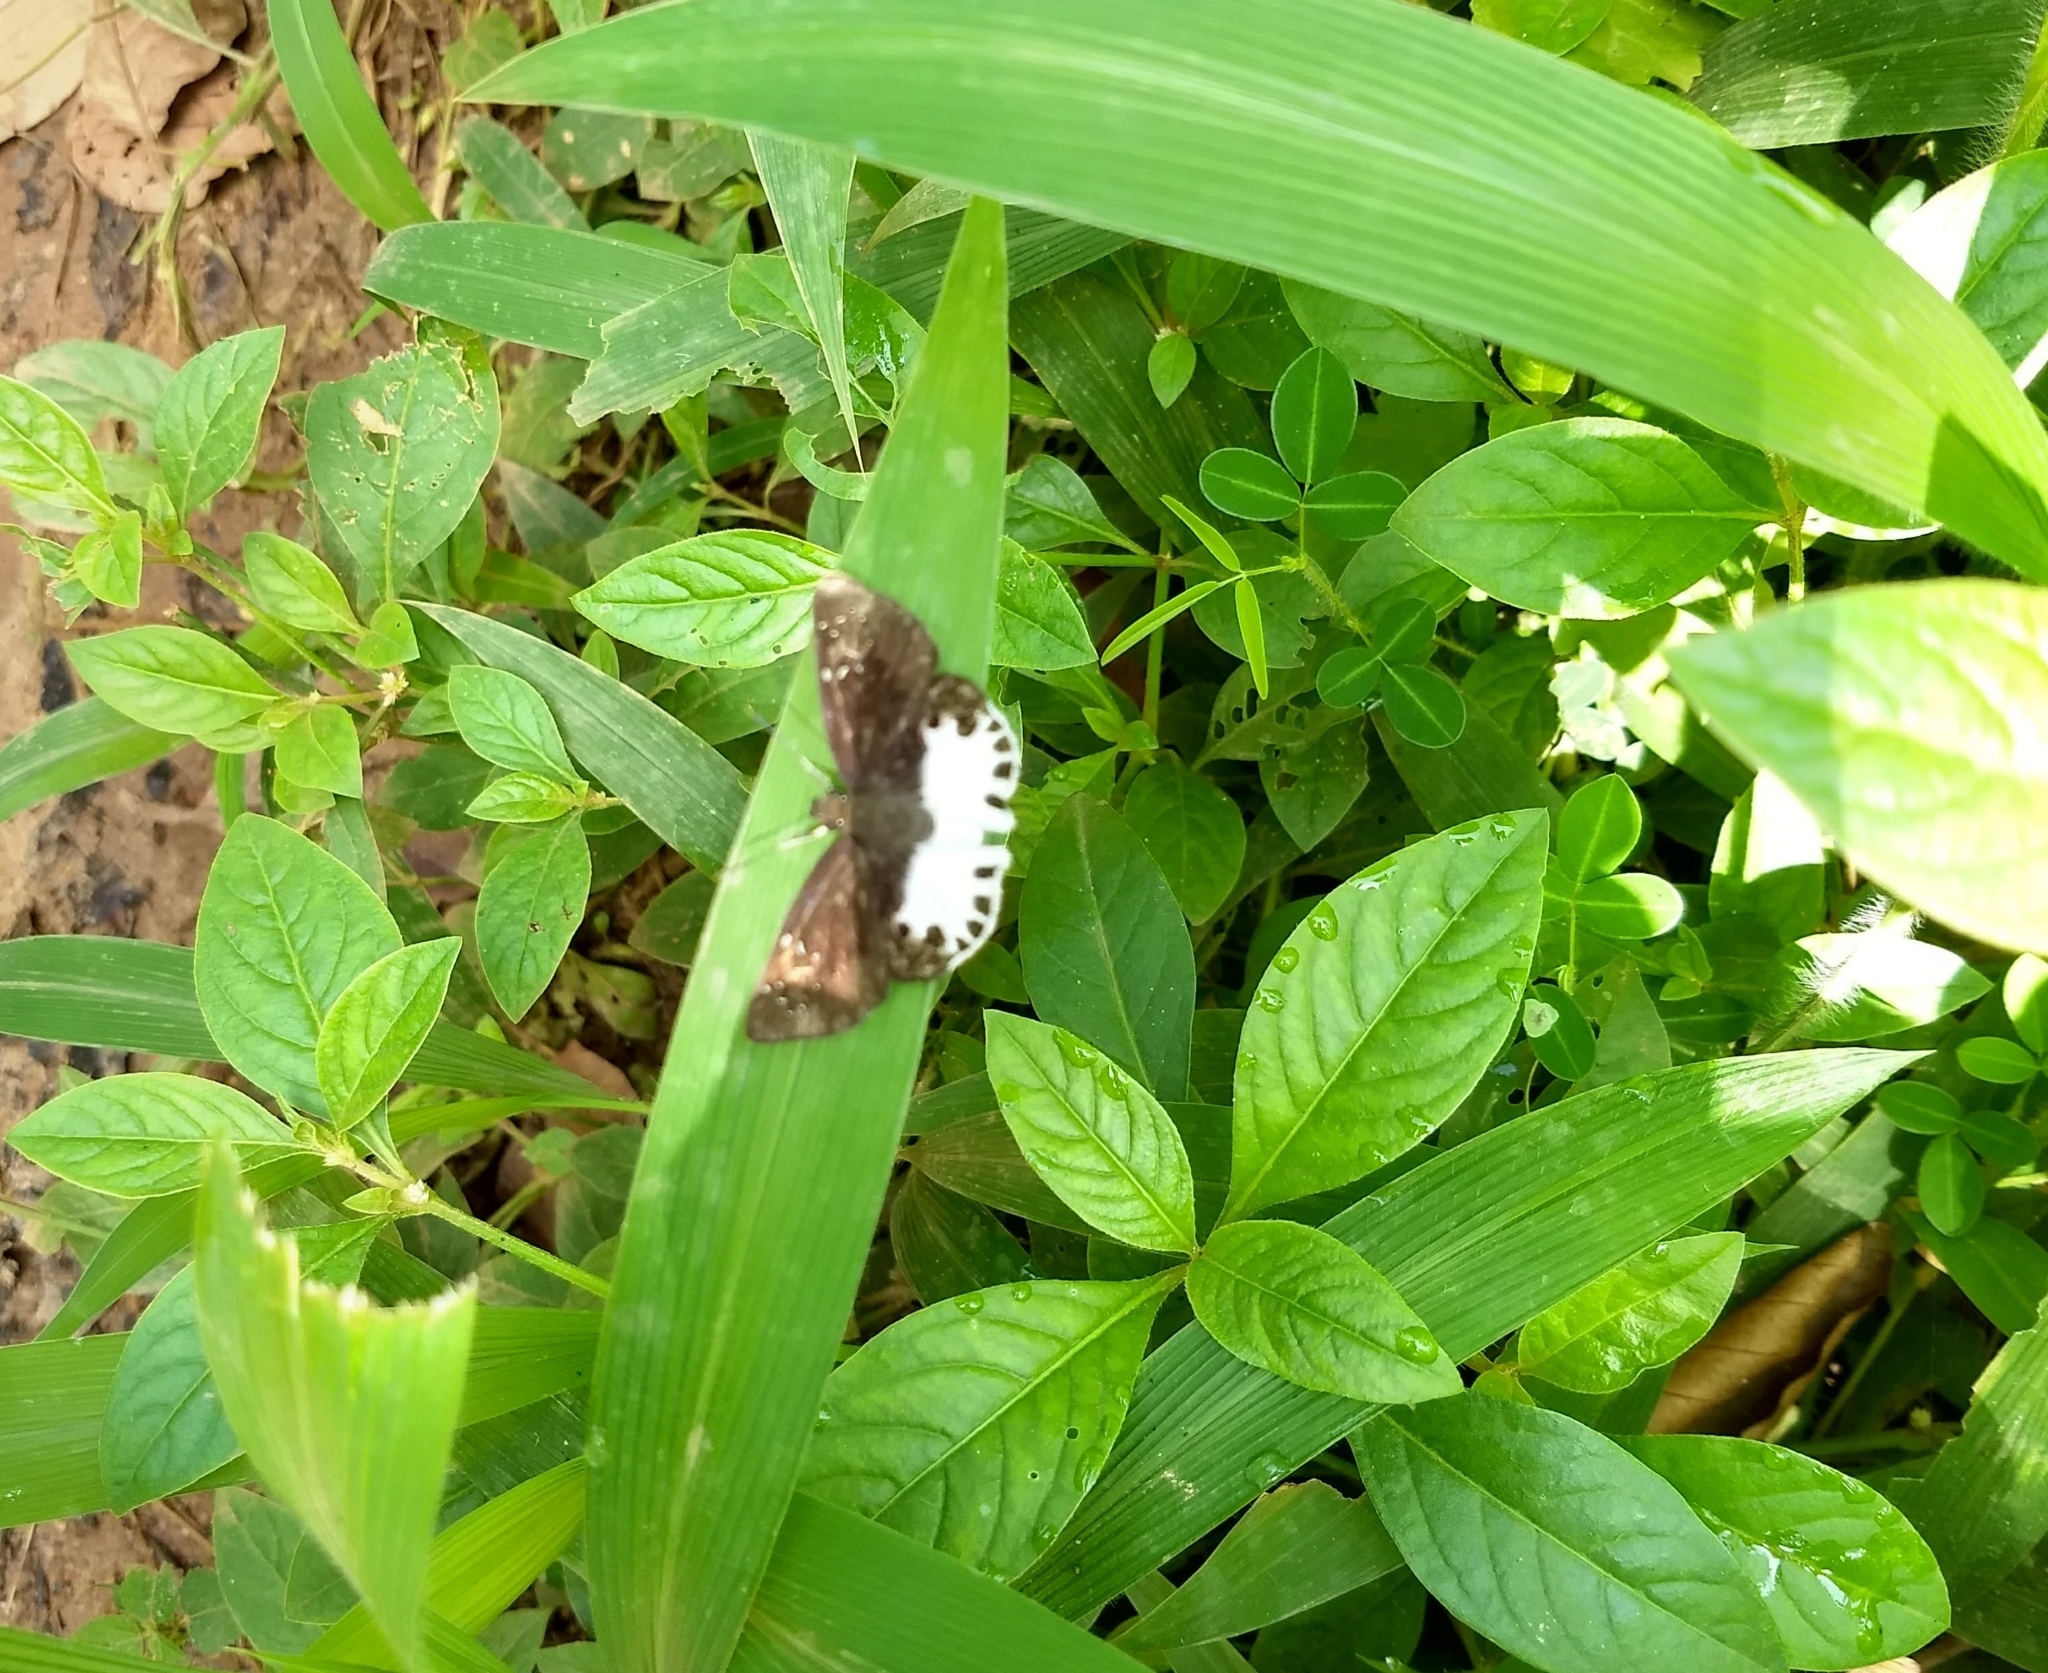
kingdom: Animalia
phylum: Arthropoda
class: Insecta
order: Lepidoptera
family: Hesperiidae
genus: Tagiades
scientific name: Tagiades litigiosa
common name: Water snow flat
